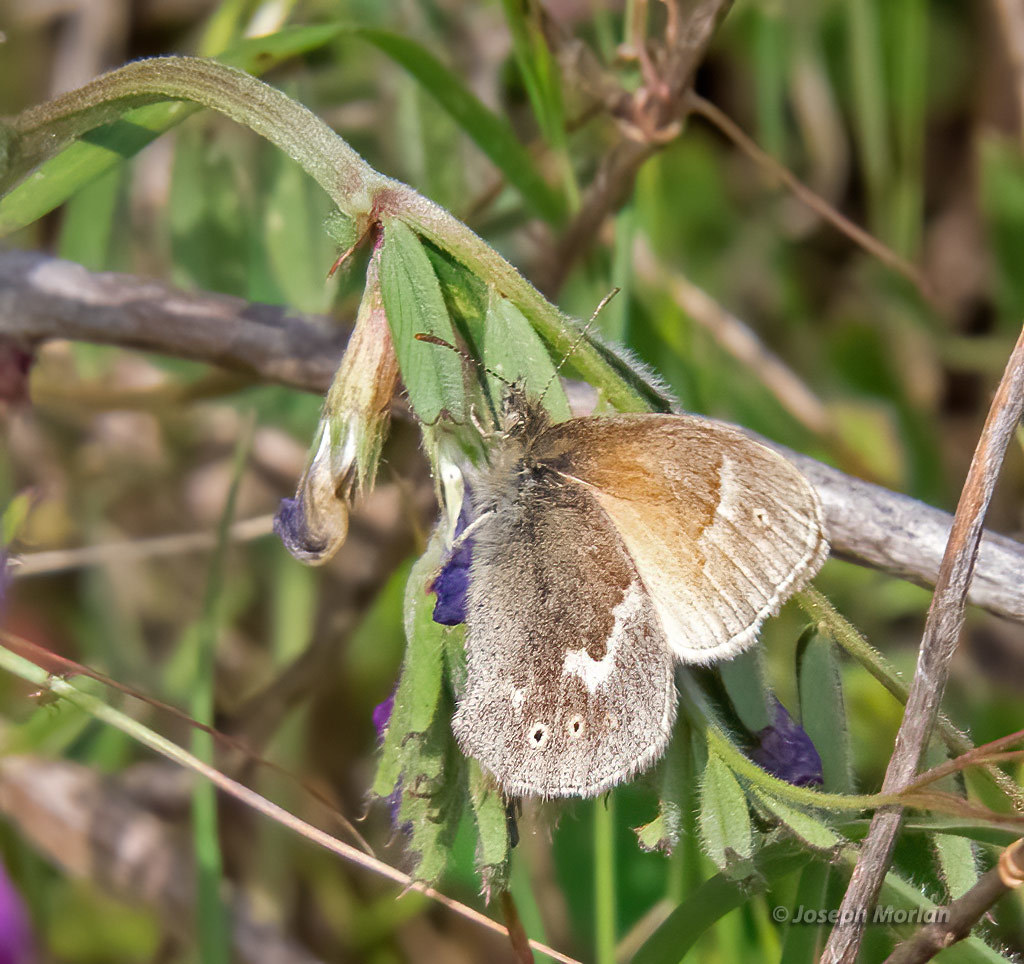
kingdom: Animalia
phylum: Arthropoda
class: Insecta
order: Lepidoptera
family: Nymphalidae
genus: Coenonympha
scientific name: Coenonympha california
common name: Common ringlet
